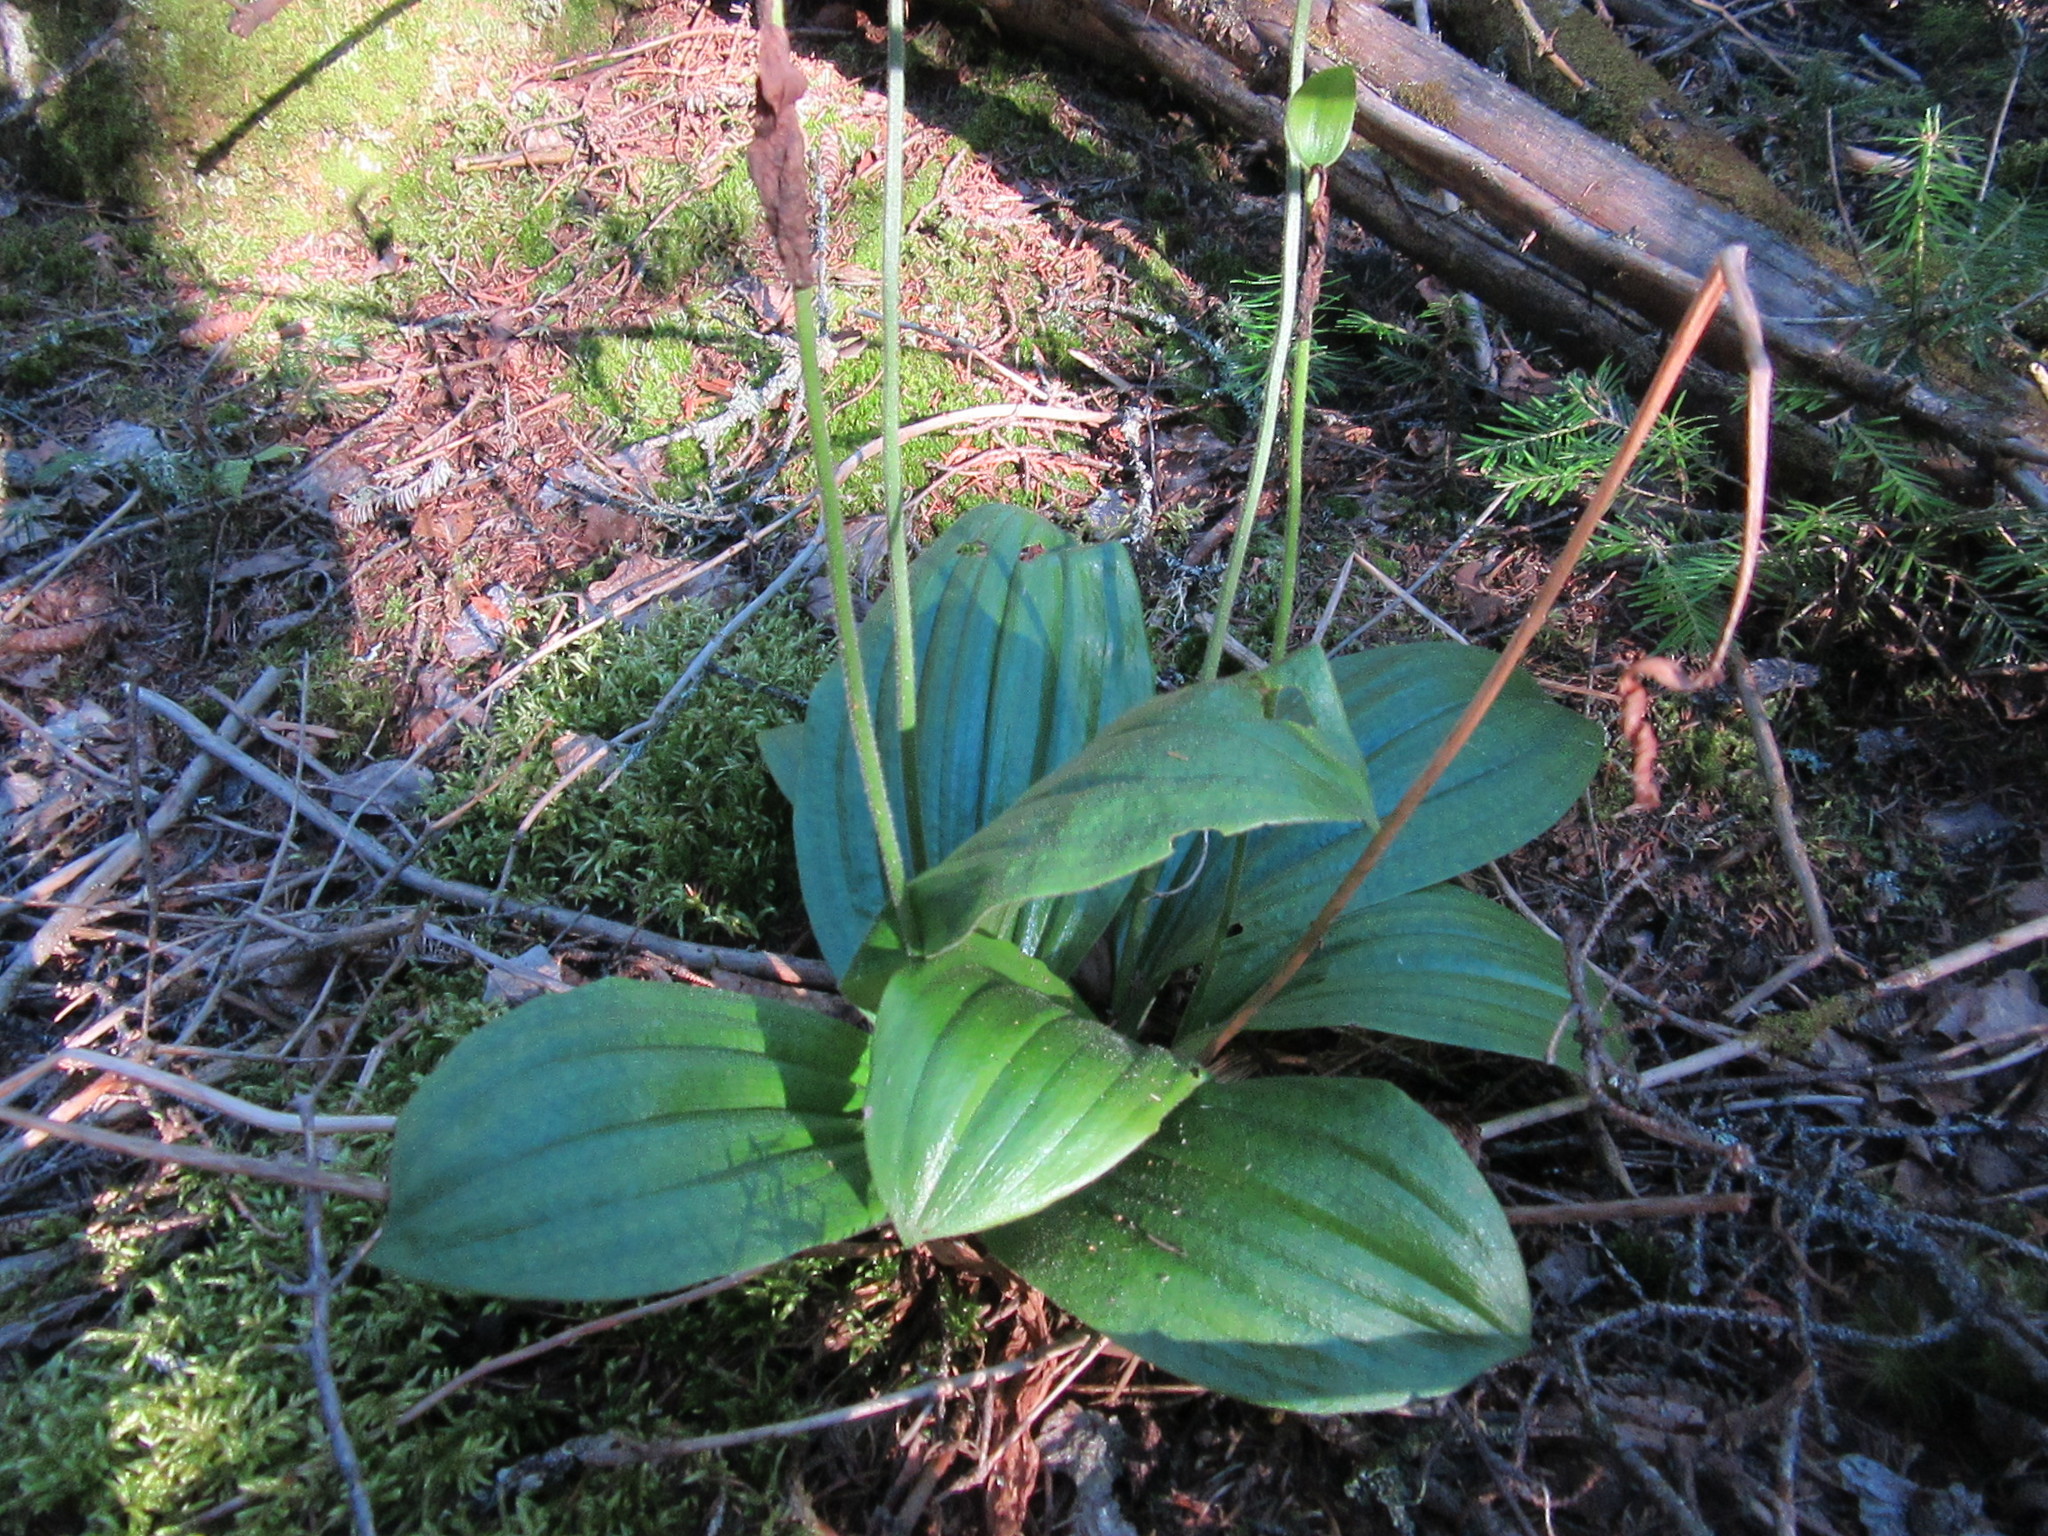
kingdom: Plantae
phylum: Tracheophyta
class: Liliopsida
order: Asparagales
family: Orchidaceae
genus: Cypripedium
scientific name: Cypripedium acaule
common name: Pink lady's-slipper
